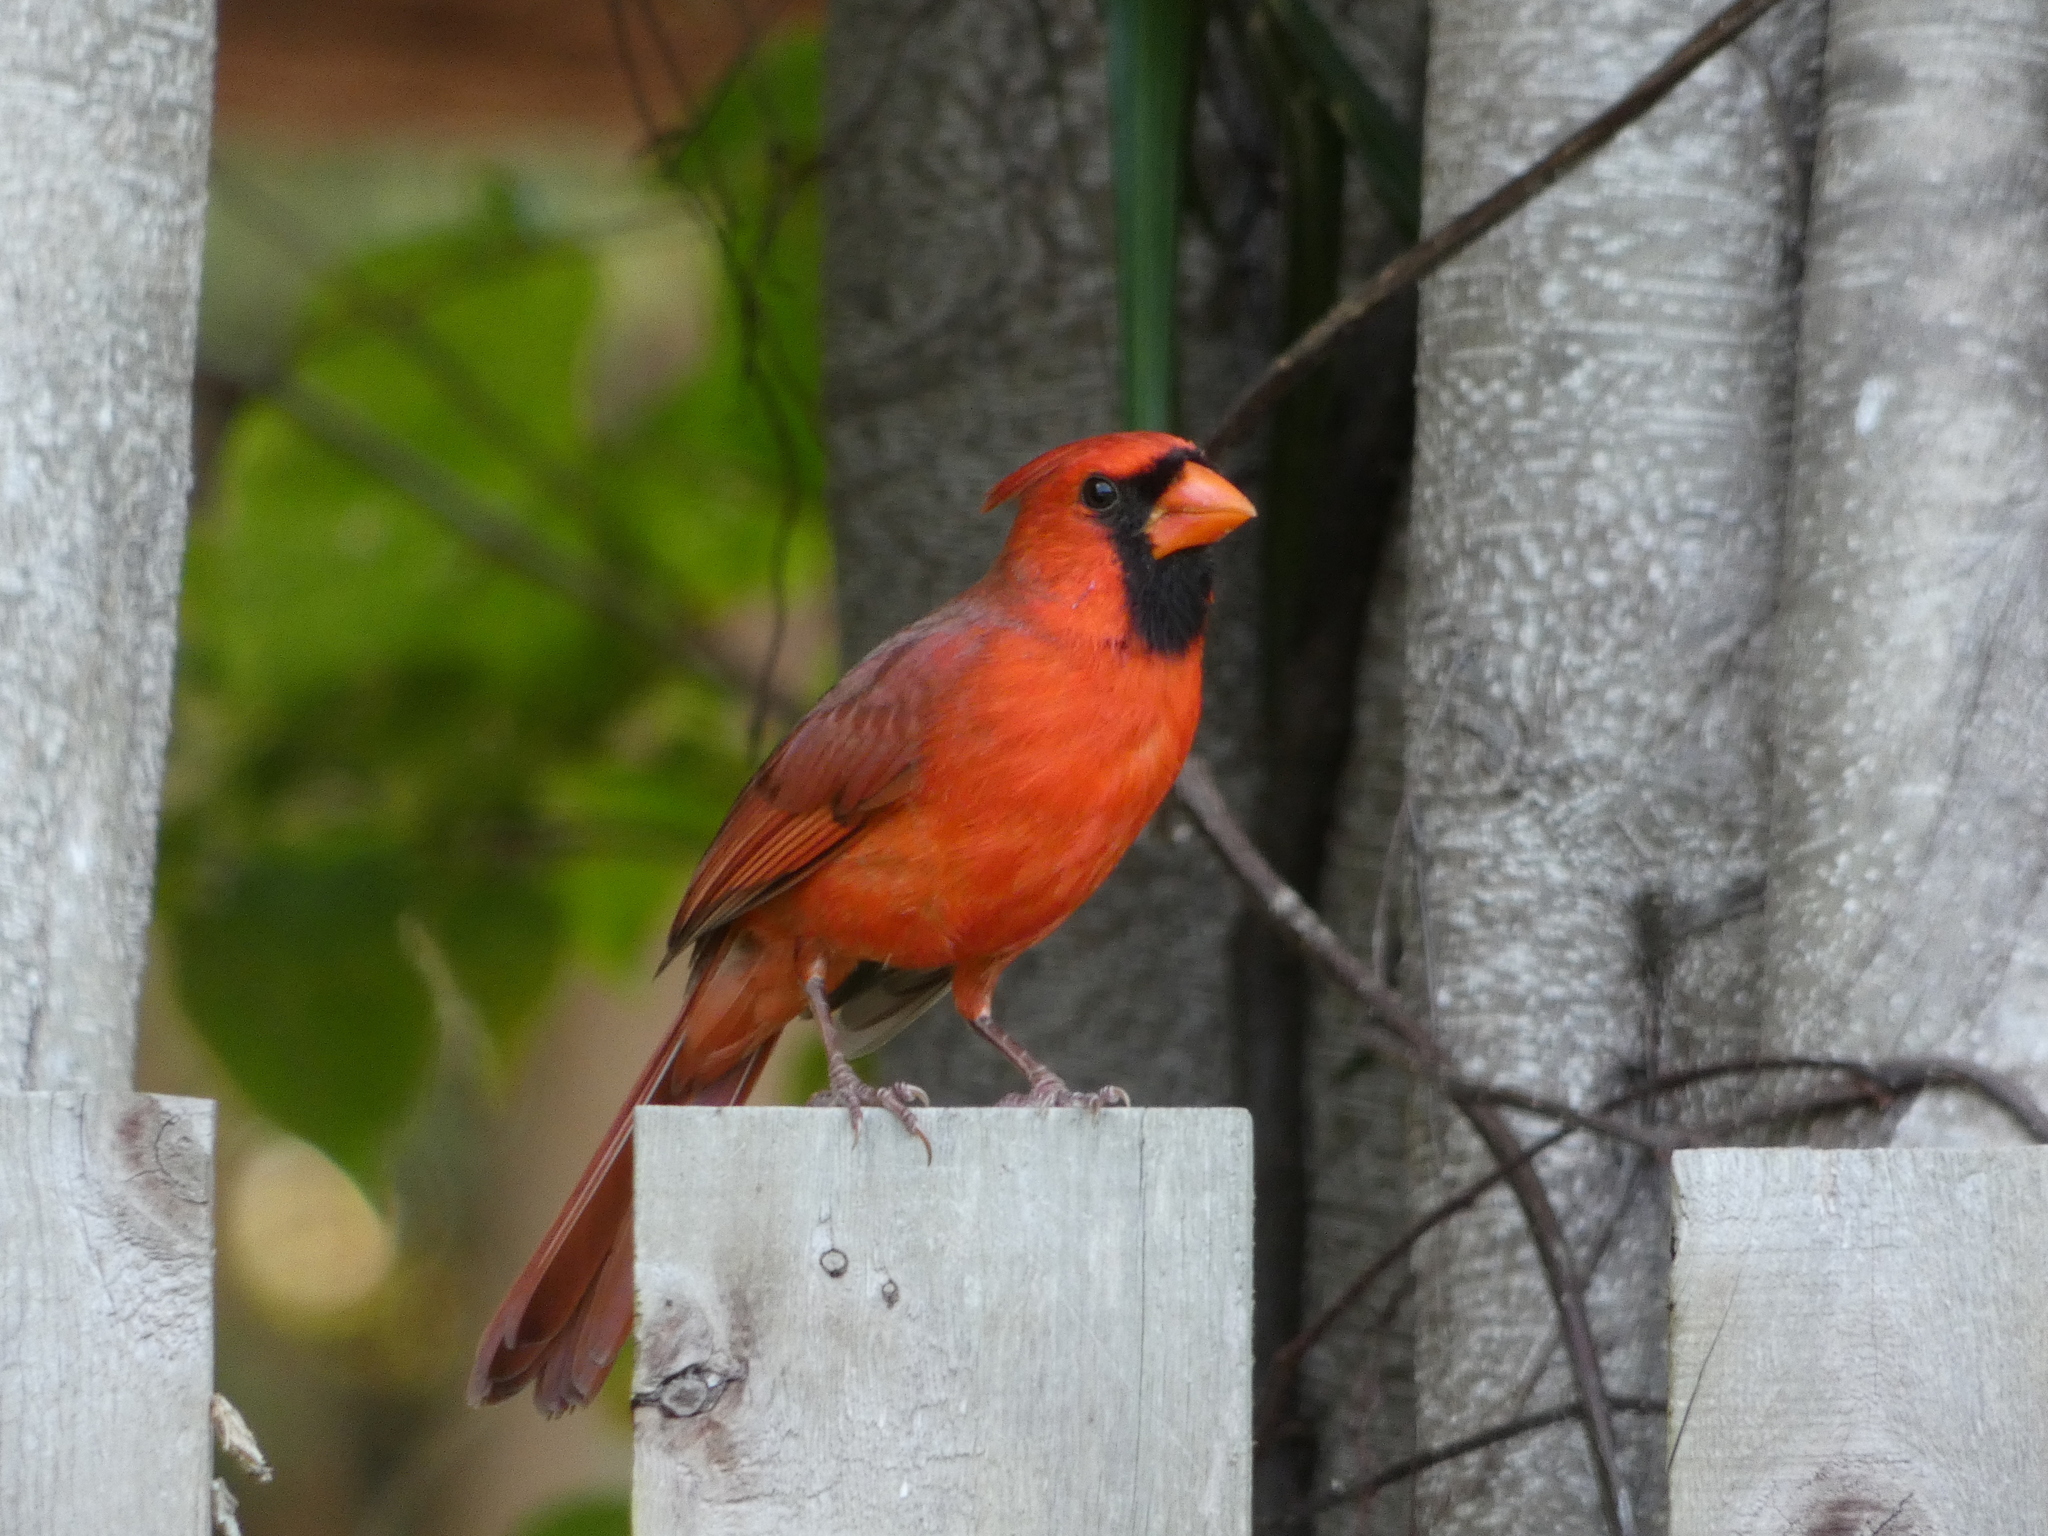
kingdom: Animalia
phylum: Chordata
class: Aves
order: Passeriformes
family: Cardinalidae
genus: Cardinalis
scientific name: Cardinalis cardinalis
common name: Northern cardinal
